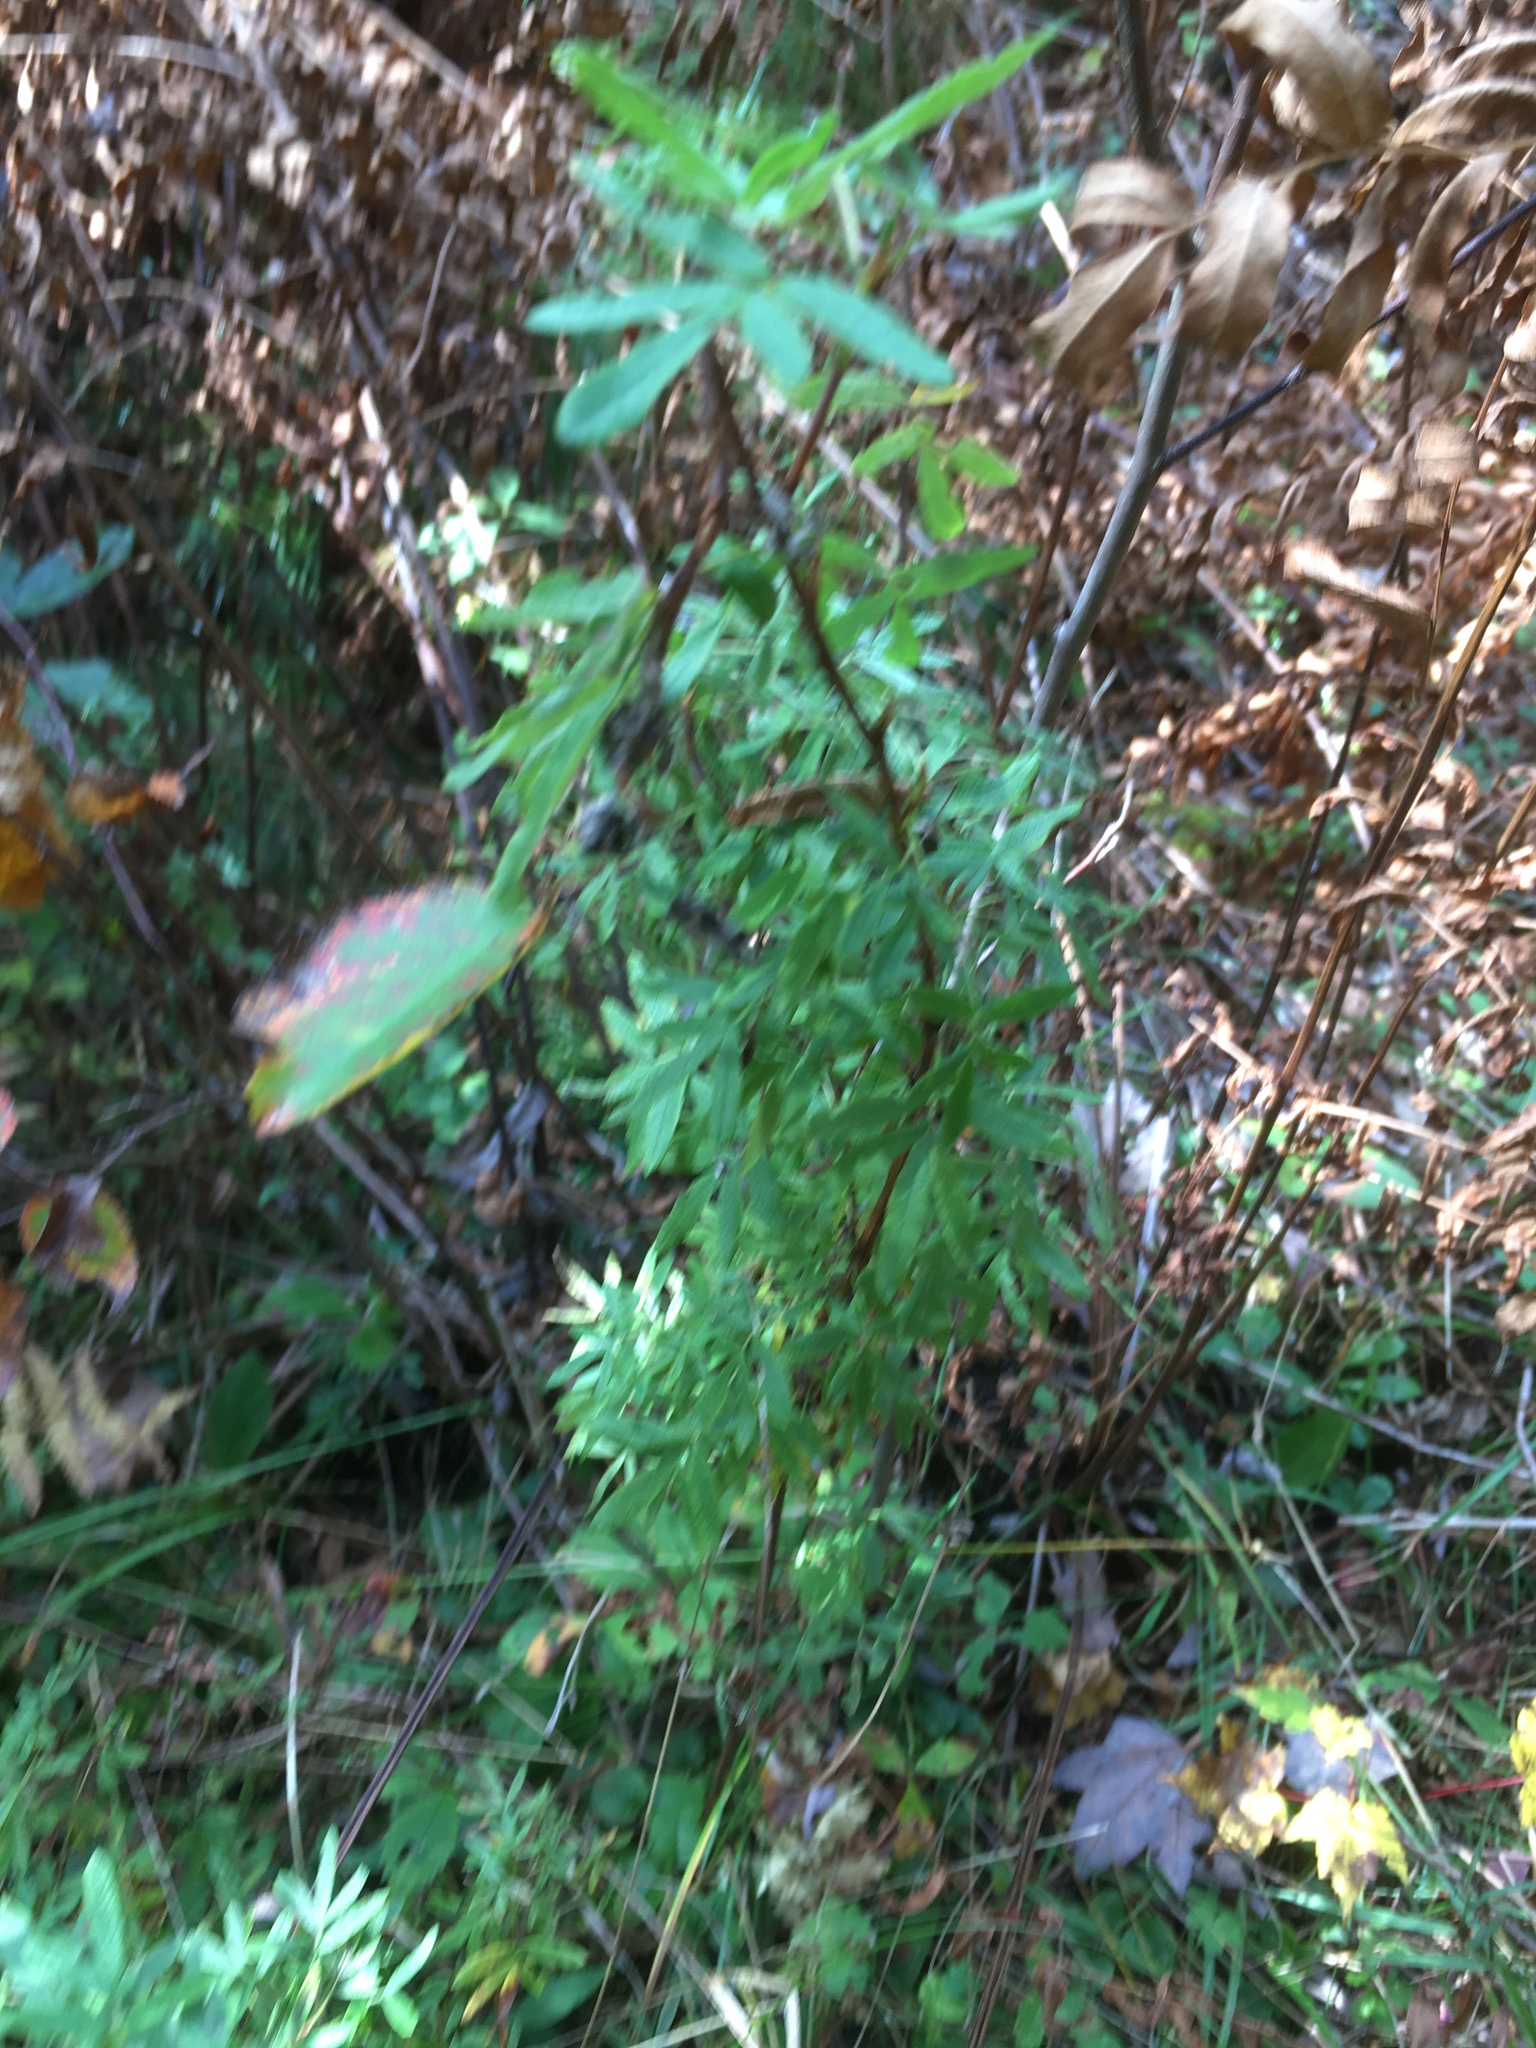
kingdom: Plantae
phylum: Tracheophyta
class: Magnoliopsida
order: Rosales
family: Rosaceae
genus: Dasiphora
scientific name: Dasiphora fruticosa
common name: Shrubby cinquefoil
